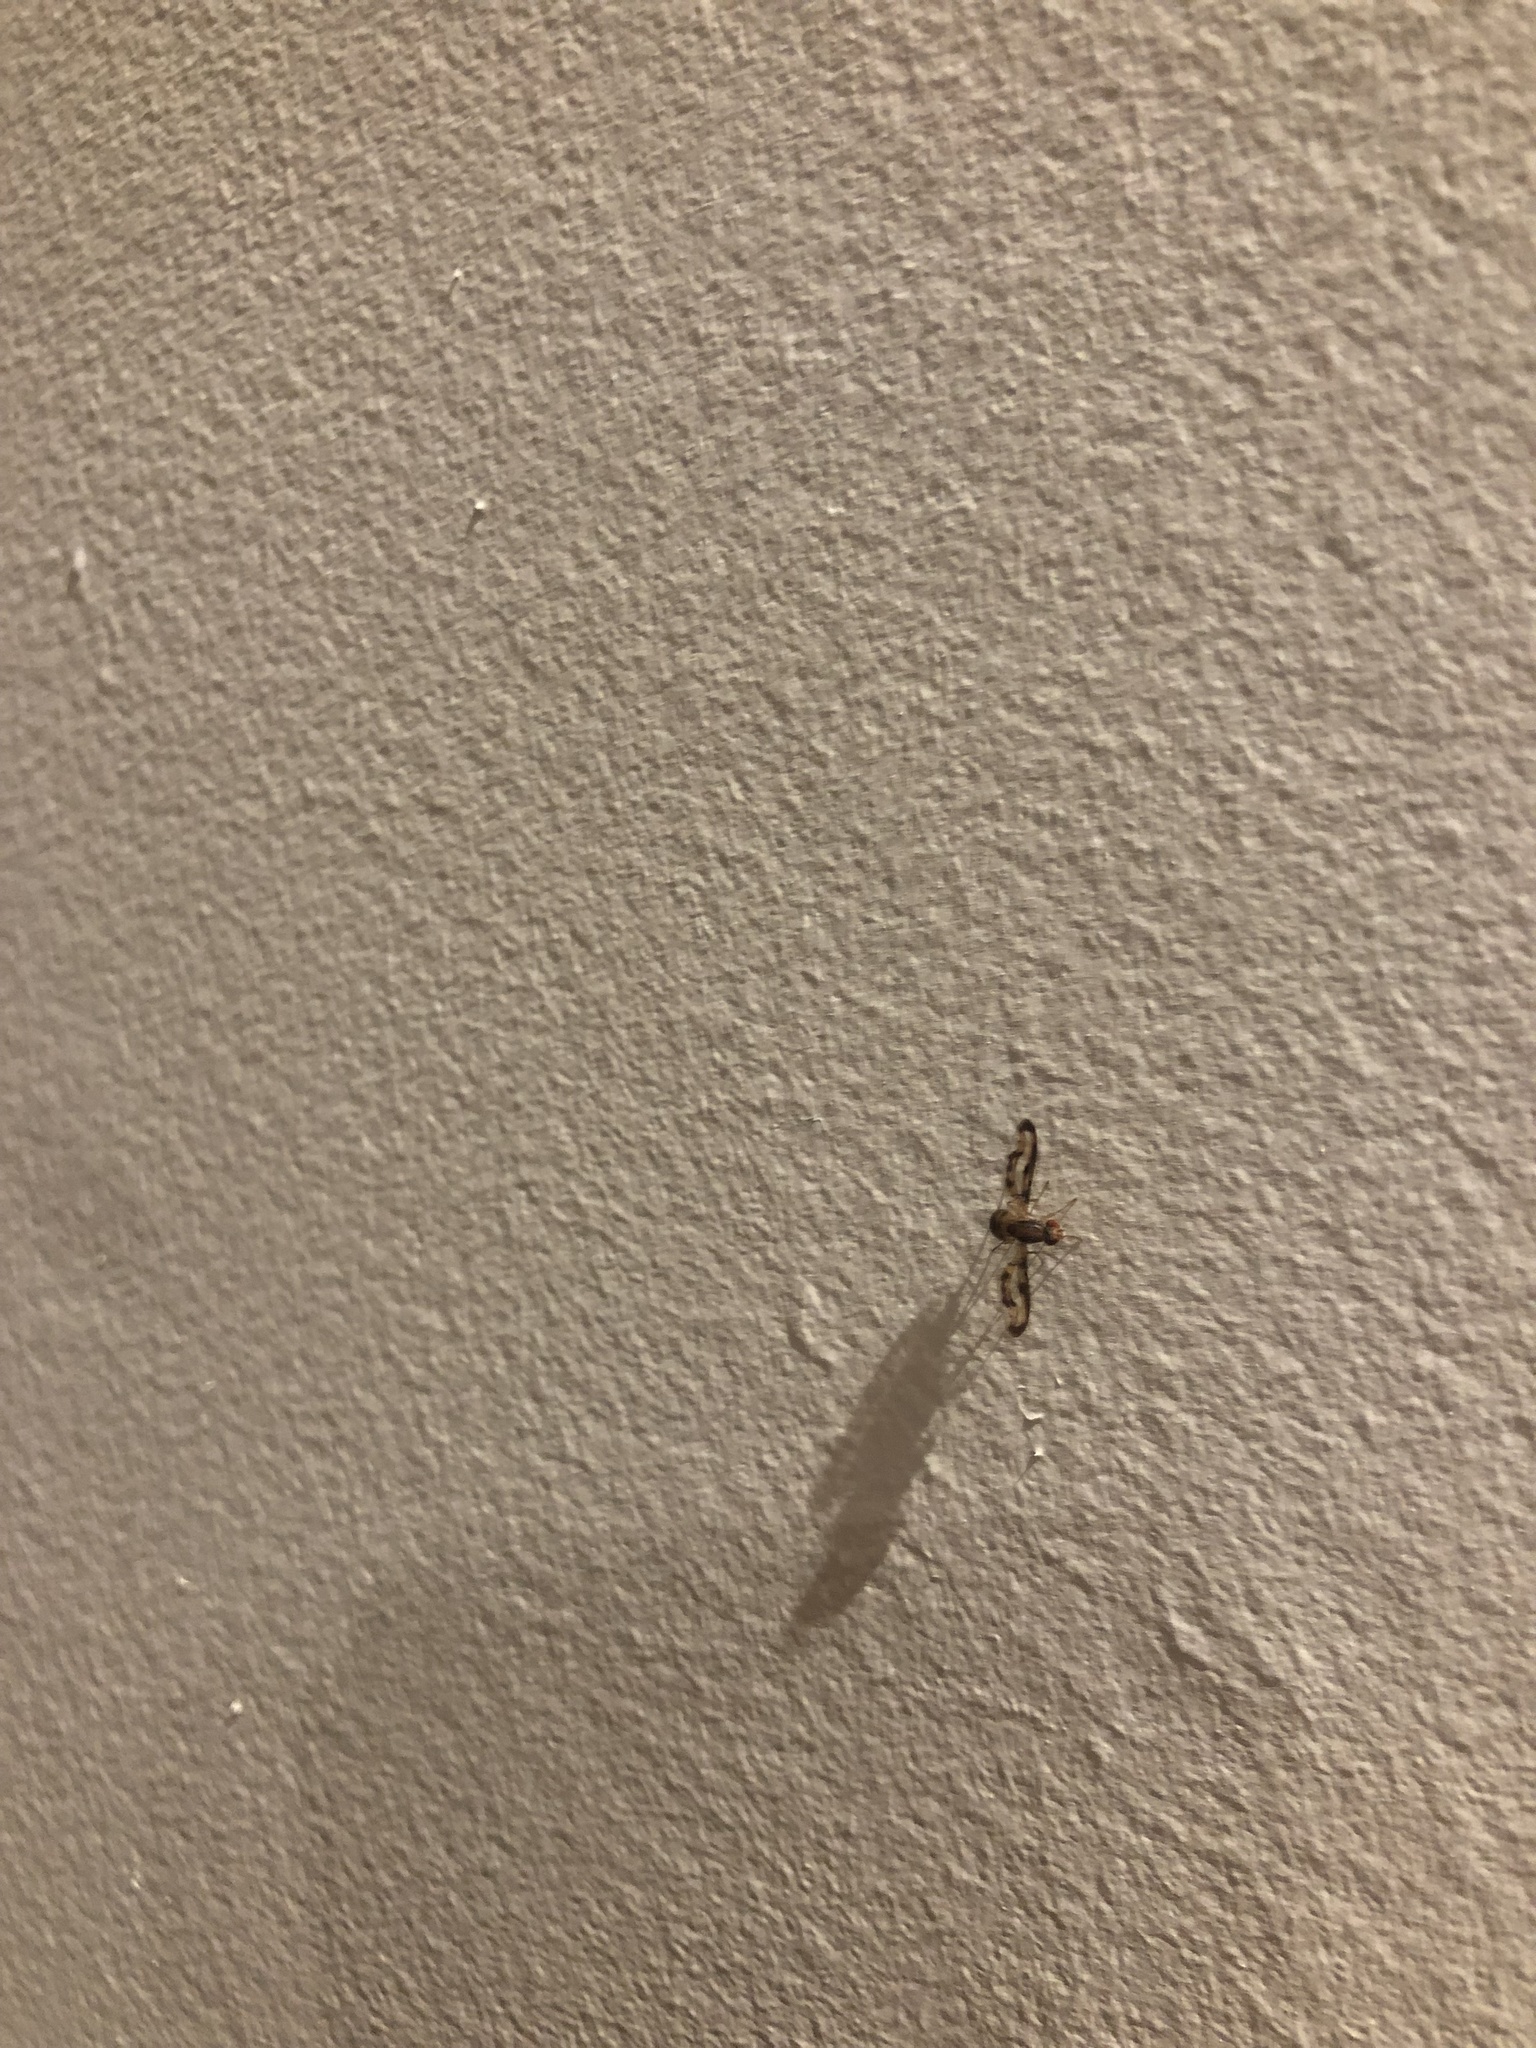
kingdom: Animalia
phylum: Arthropoda
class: Insecta
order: Diptera
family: Pallopteridae
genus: Toxonevra
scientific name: Toxonevra muliebris
